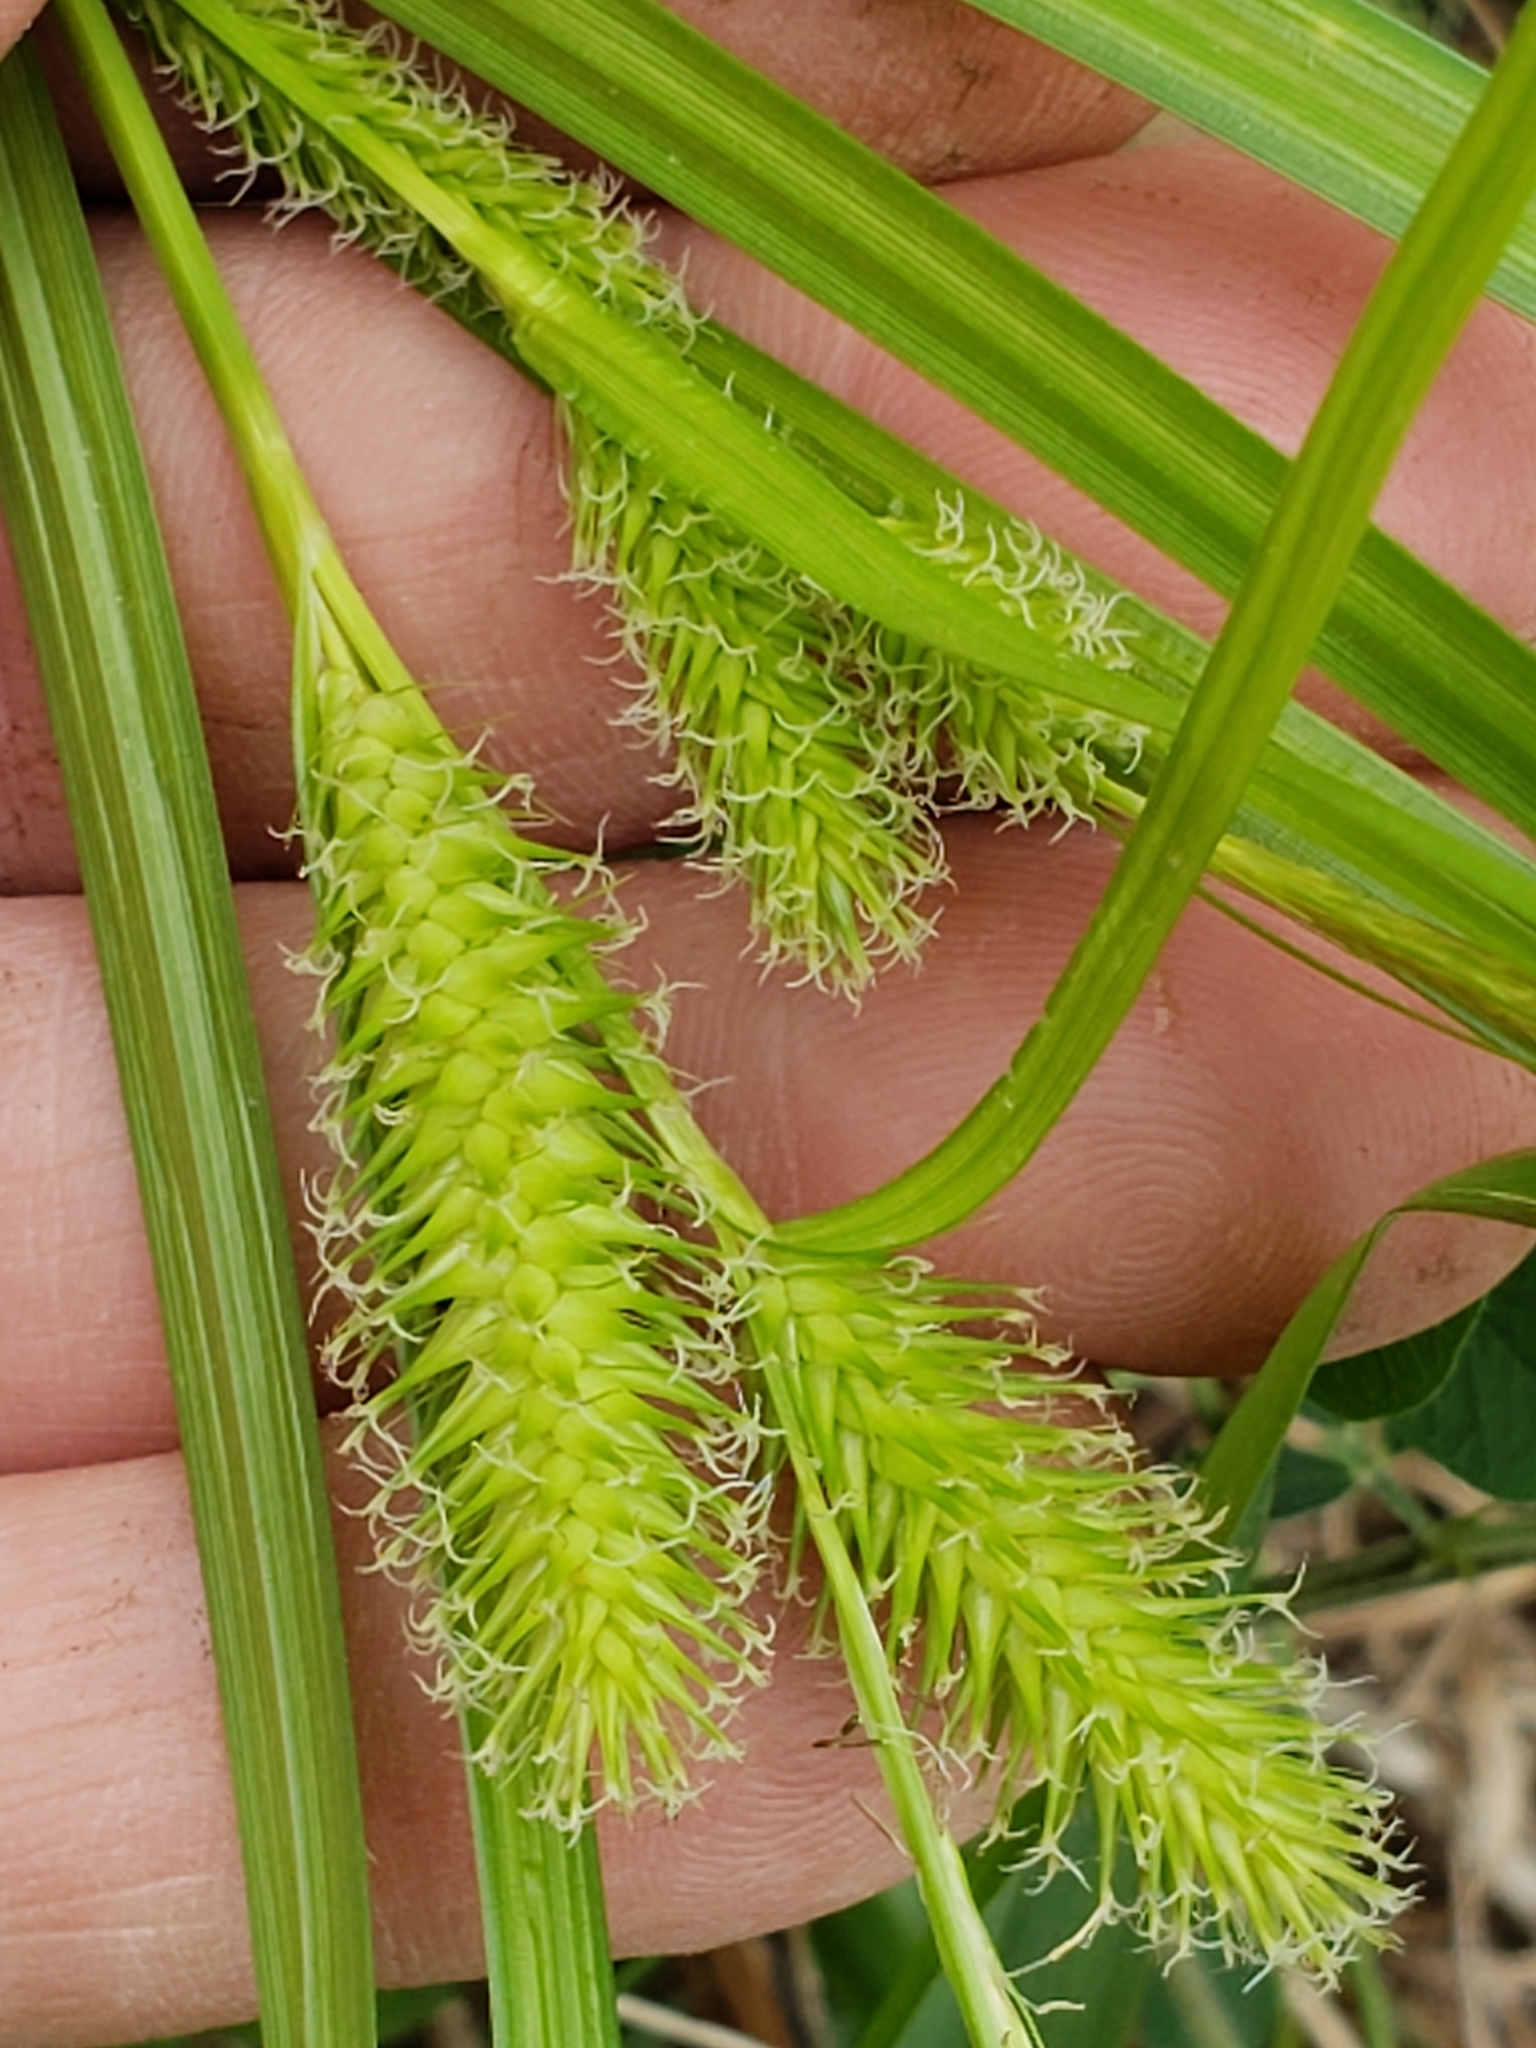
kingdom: Plantae
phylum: Tracheophyta
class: Liliopsida
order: Poales
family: Cyperaceae
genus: Carex
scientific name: Carex lurida
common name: Sallow sedge
